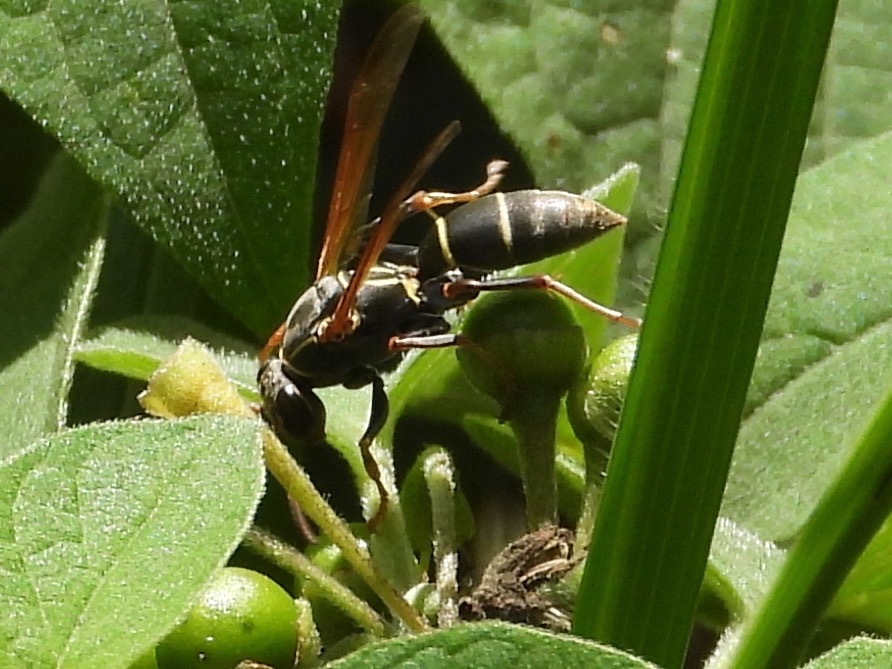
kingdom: Animalia
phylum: Arthropoda
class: Insecta
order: Hymenoptera
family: Eumenidae
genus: Polistes
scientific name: Polistes pacificus
